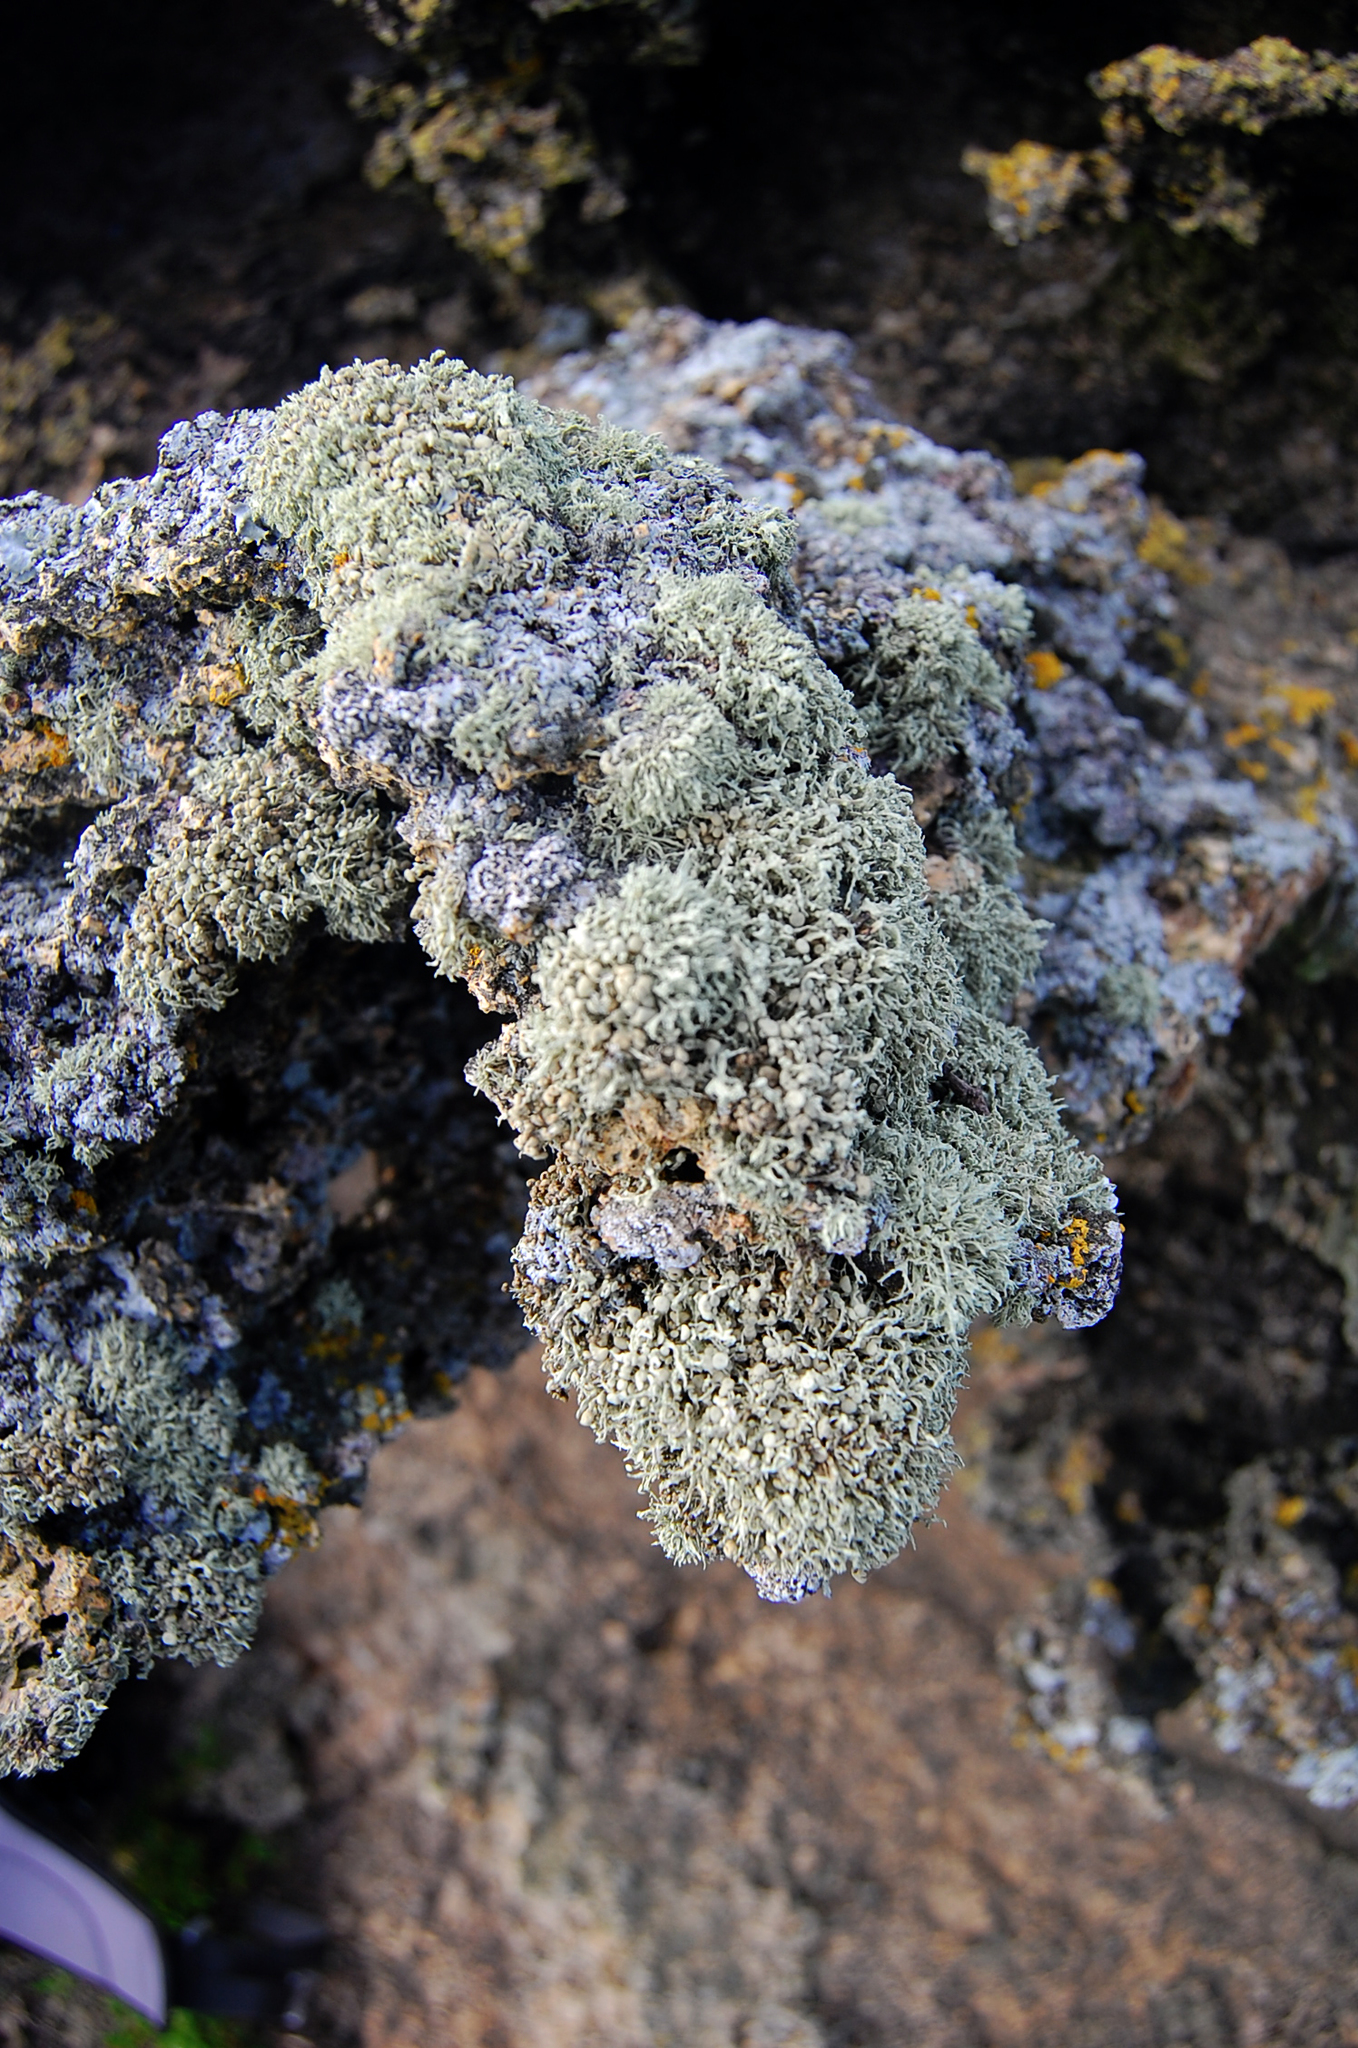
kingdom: Fungi
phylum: Ascomycota
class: Lecanoromycetes
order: Lecanorales
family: Ramalinaceae
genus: Ramalina
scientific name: Ramalina microspora
